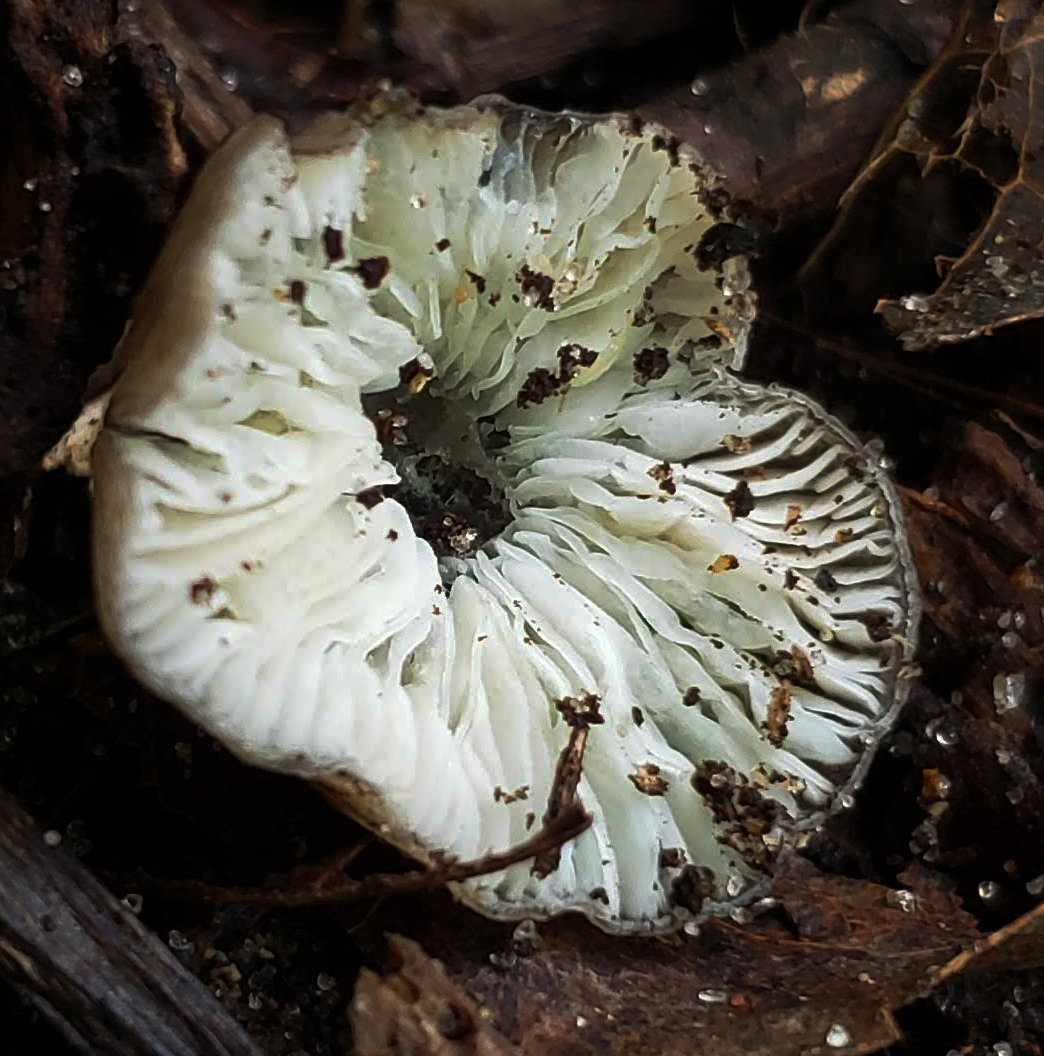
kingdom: Fungi
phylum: Basidiomycota
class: Agaricomycetes
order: Agaricales
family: Pluteaceae
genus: Pluteus
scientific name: Pluteus thomsonii
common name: Veined shield
